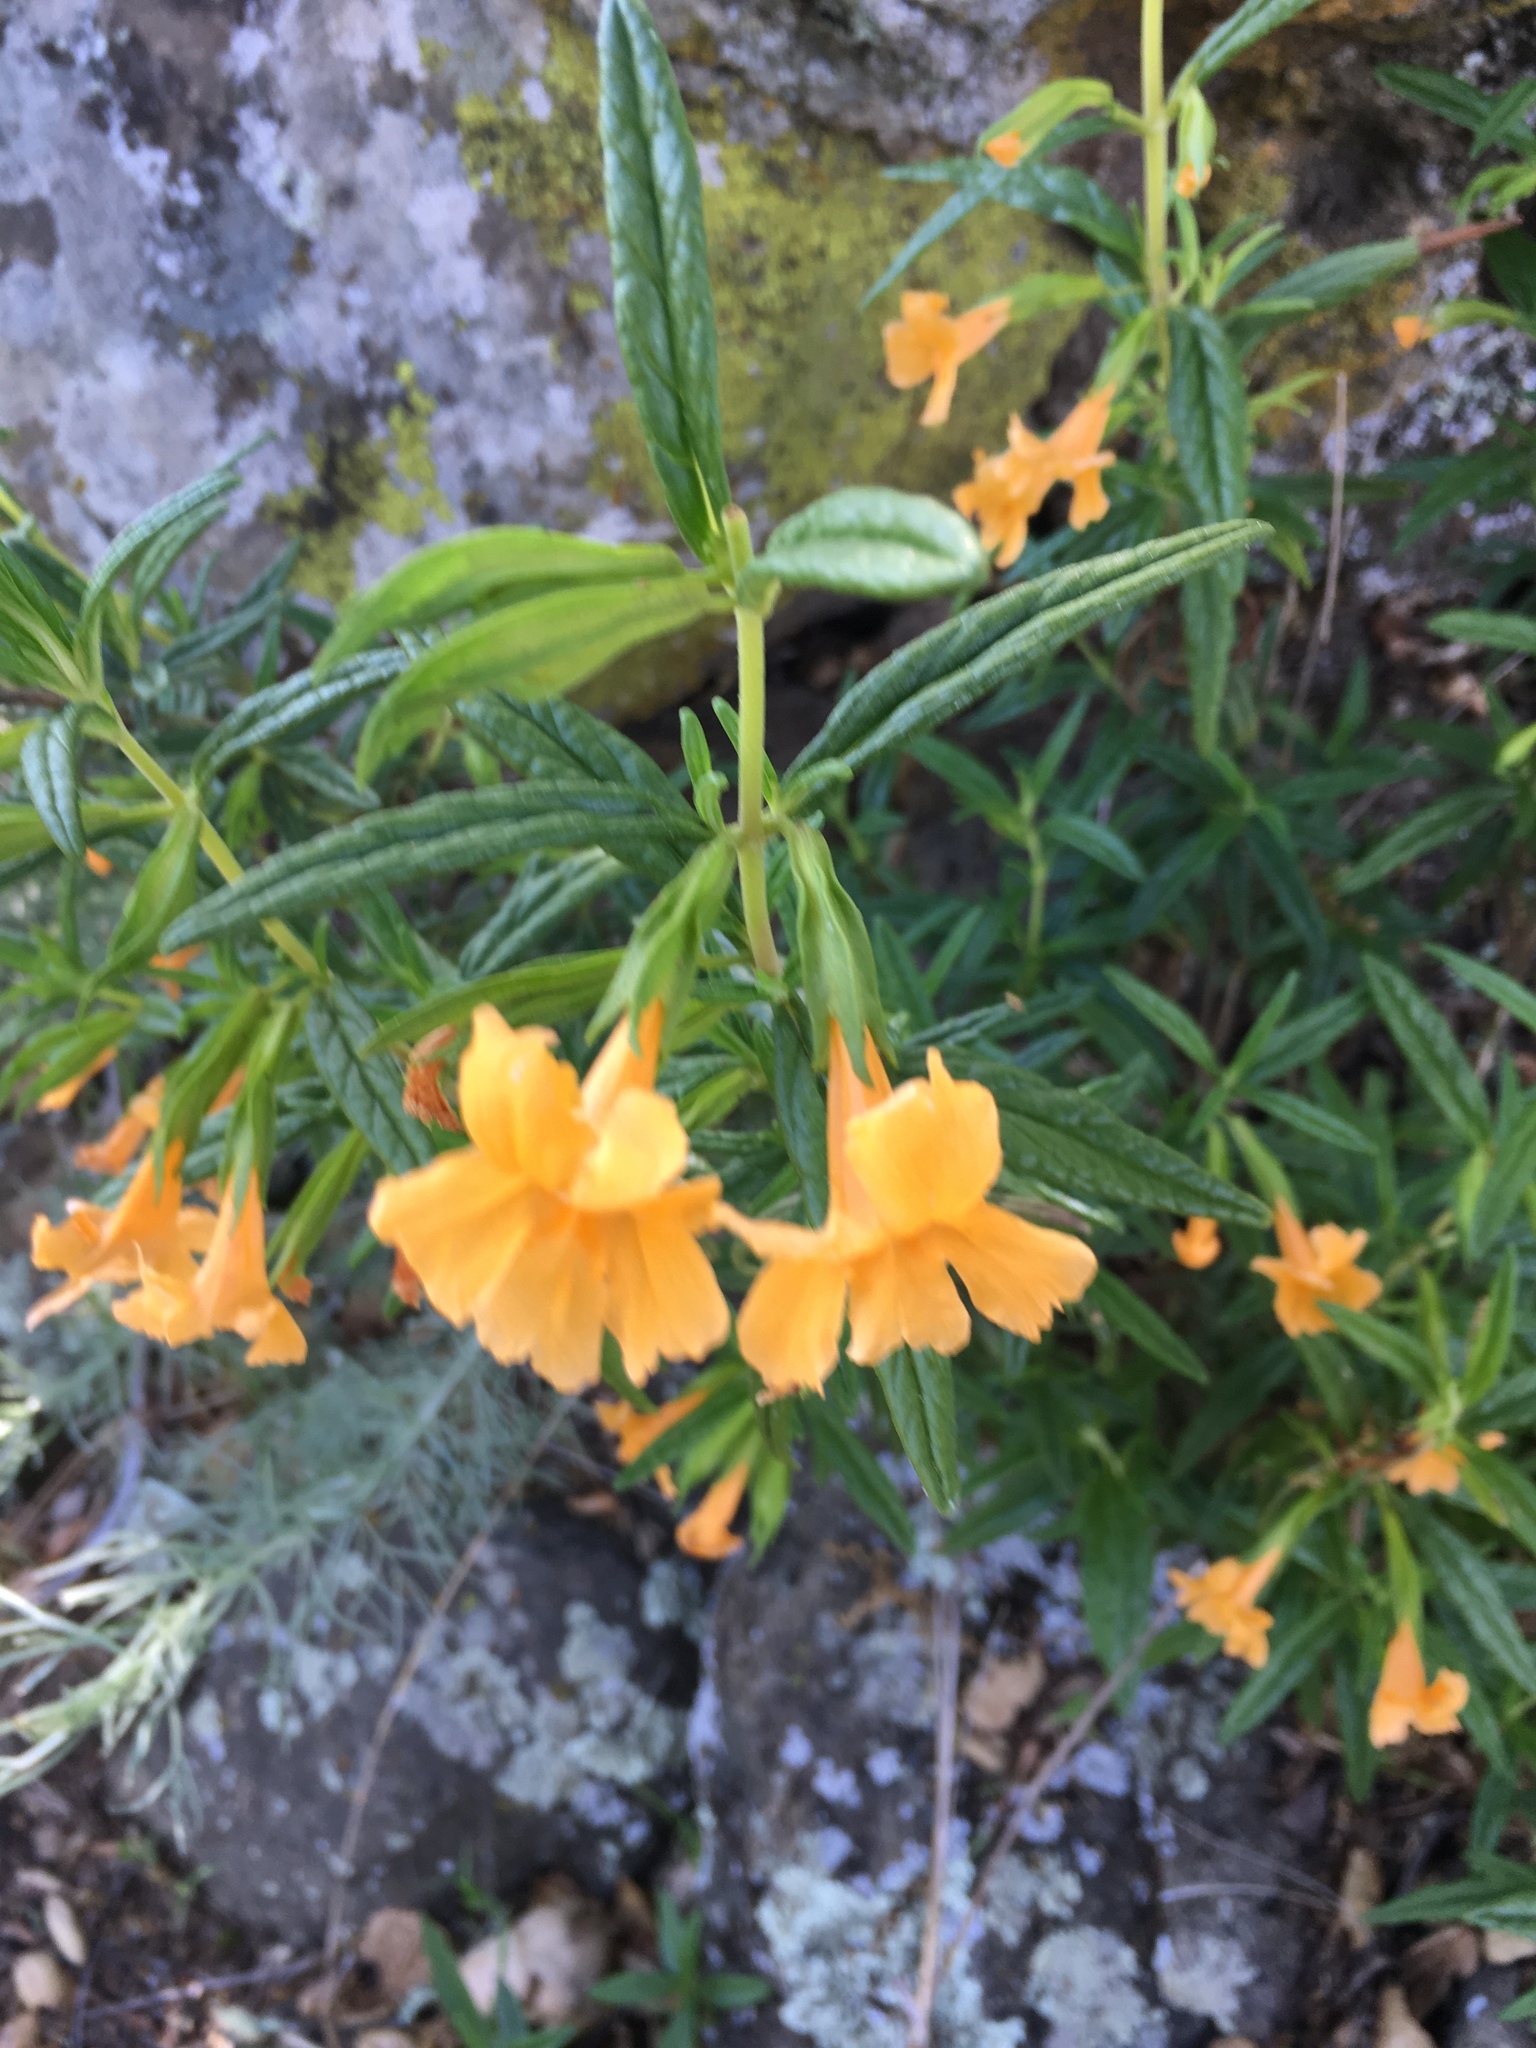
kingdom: Plantae
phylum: Tracheophyta
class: Magnoliopsida
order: Lamiales
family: Phrymaceae
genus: Diplacus
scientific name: Diplacus aurantiacus
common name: Bush monkey-flower
